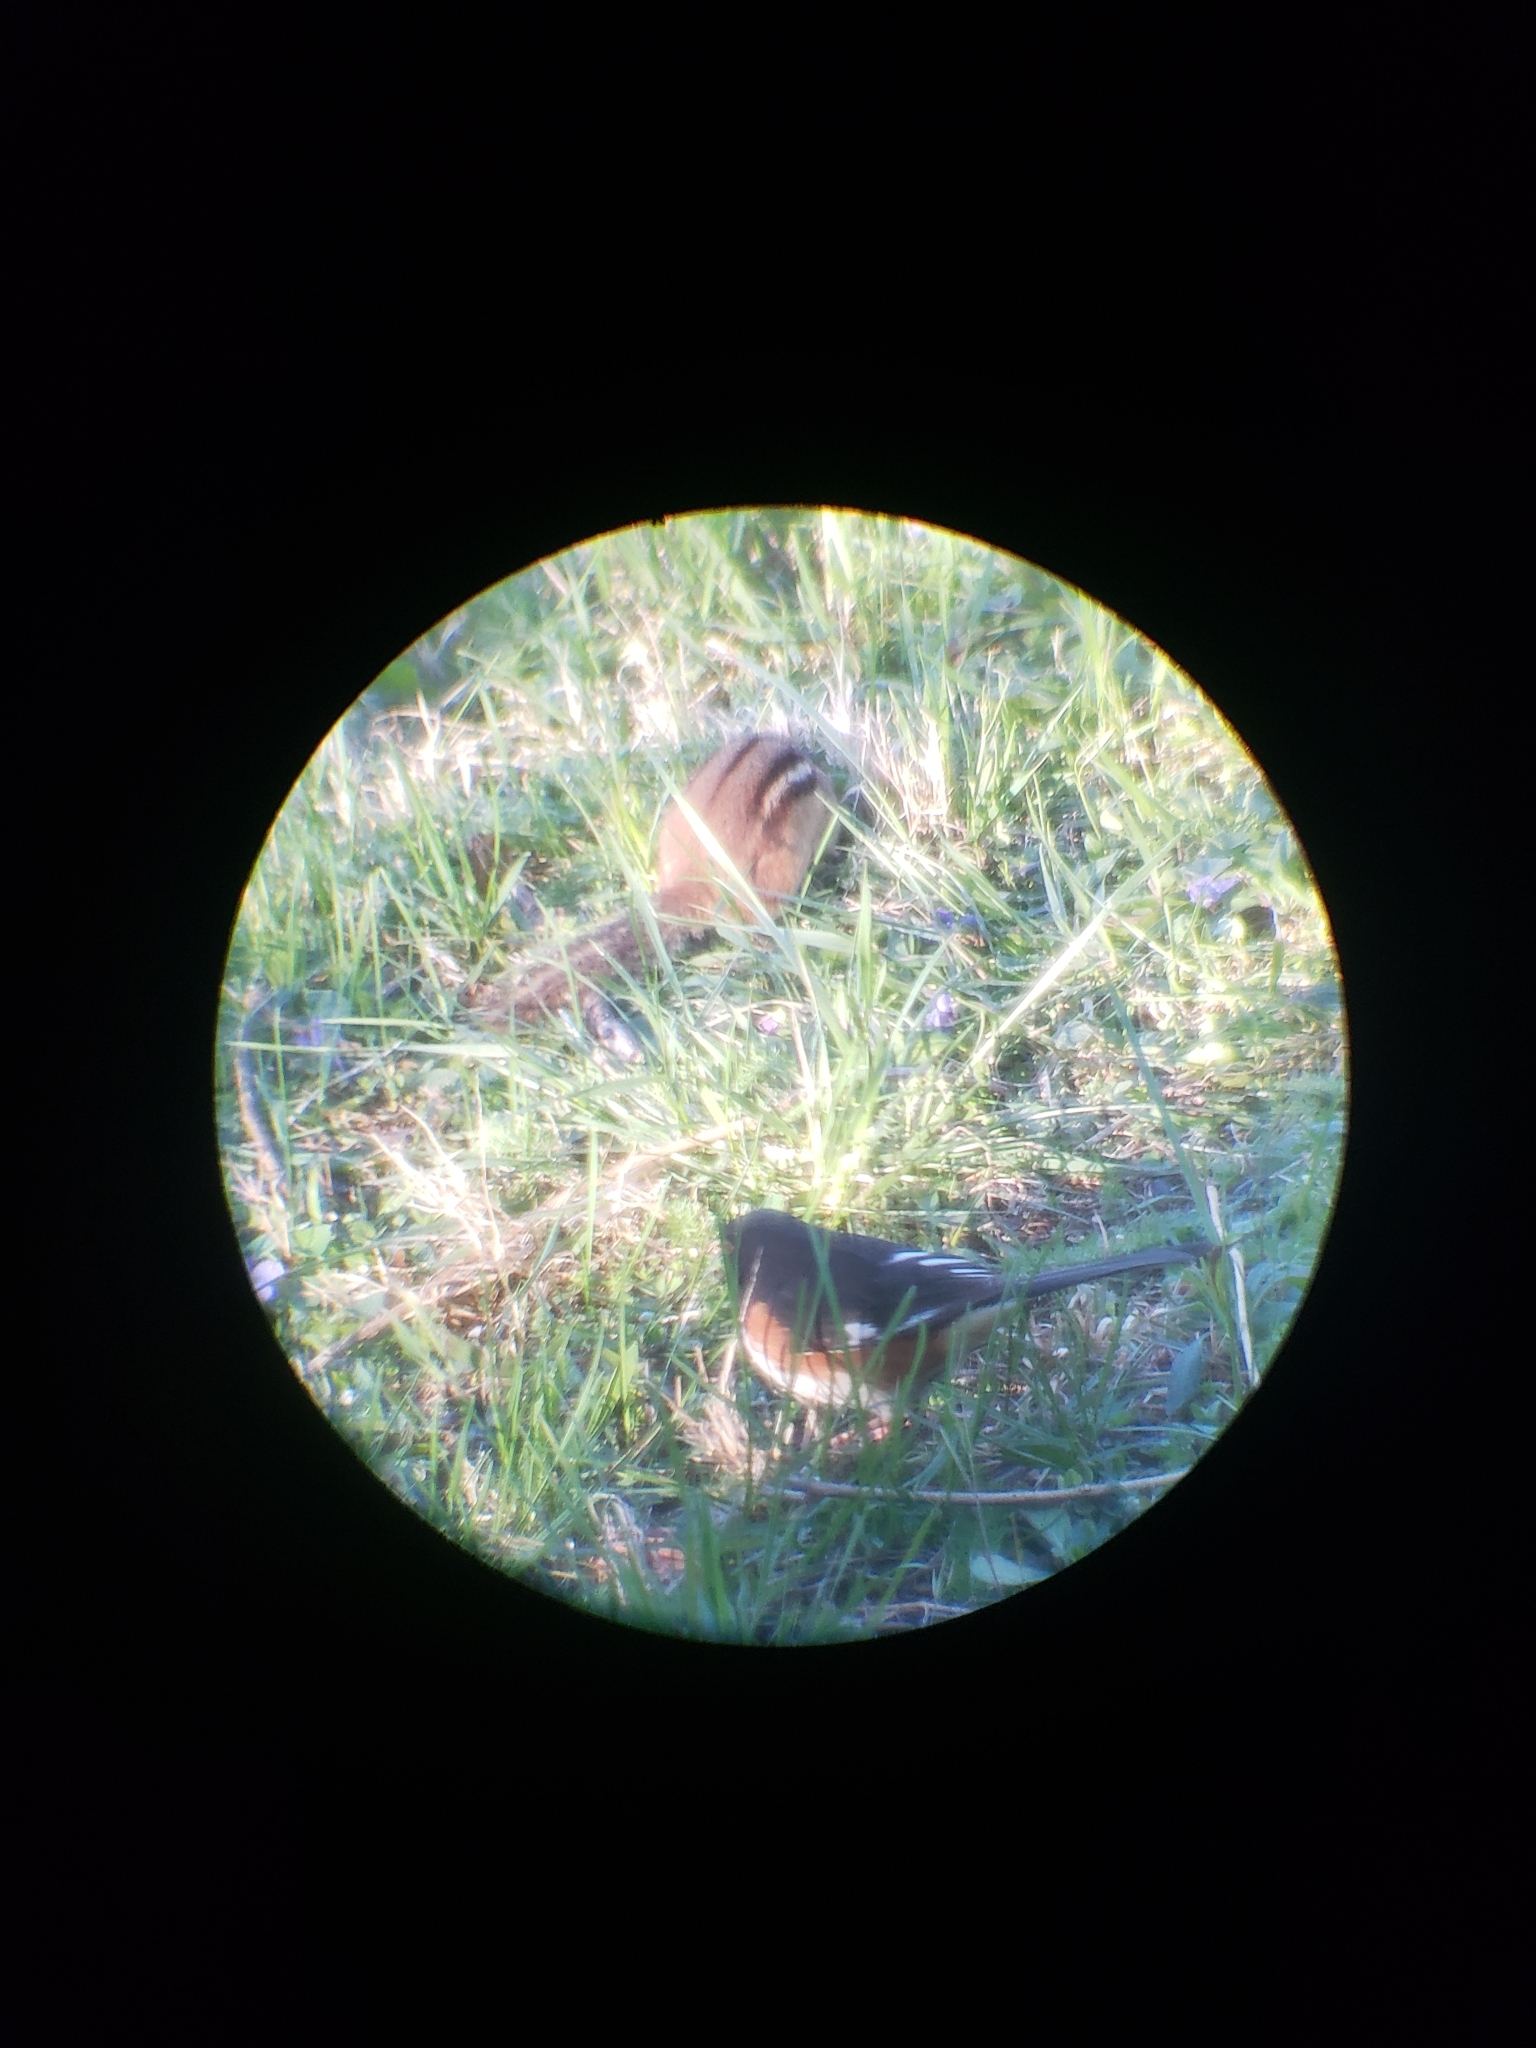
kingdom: Animalia
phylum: Chordata
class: Aves
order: Passeriformes
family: Passerellidae
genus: Pipilo
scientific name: Pipilo erythrophthalmus
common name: Eastern towhee
